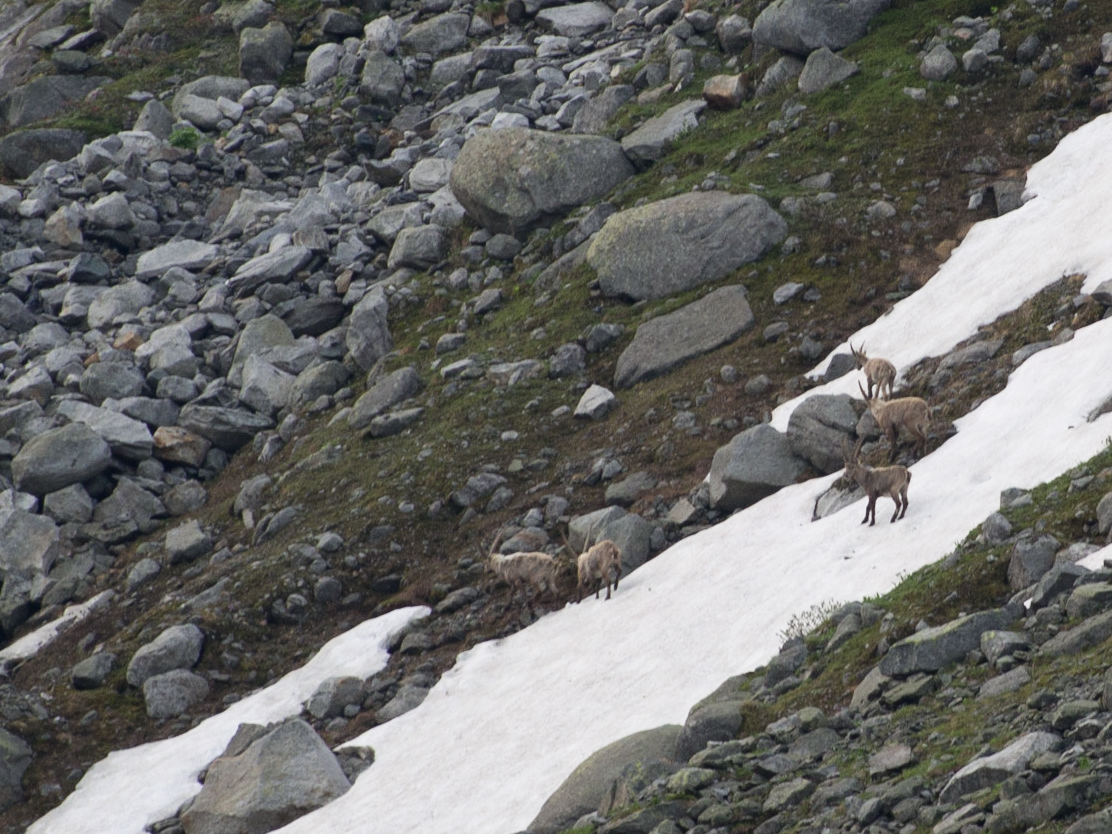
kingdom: Animalia
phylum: Chordata
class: Mammalia
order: Artiodactyla
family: Bovidae
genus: Capra
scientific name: Capra ibex
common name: Alpine ibex
